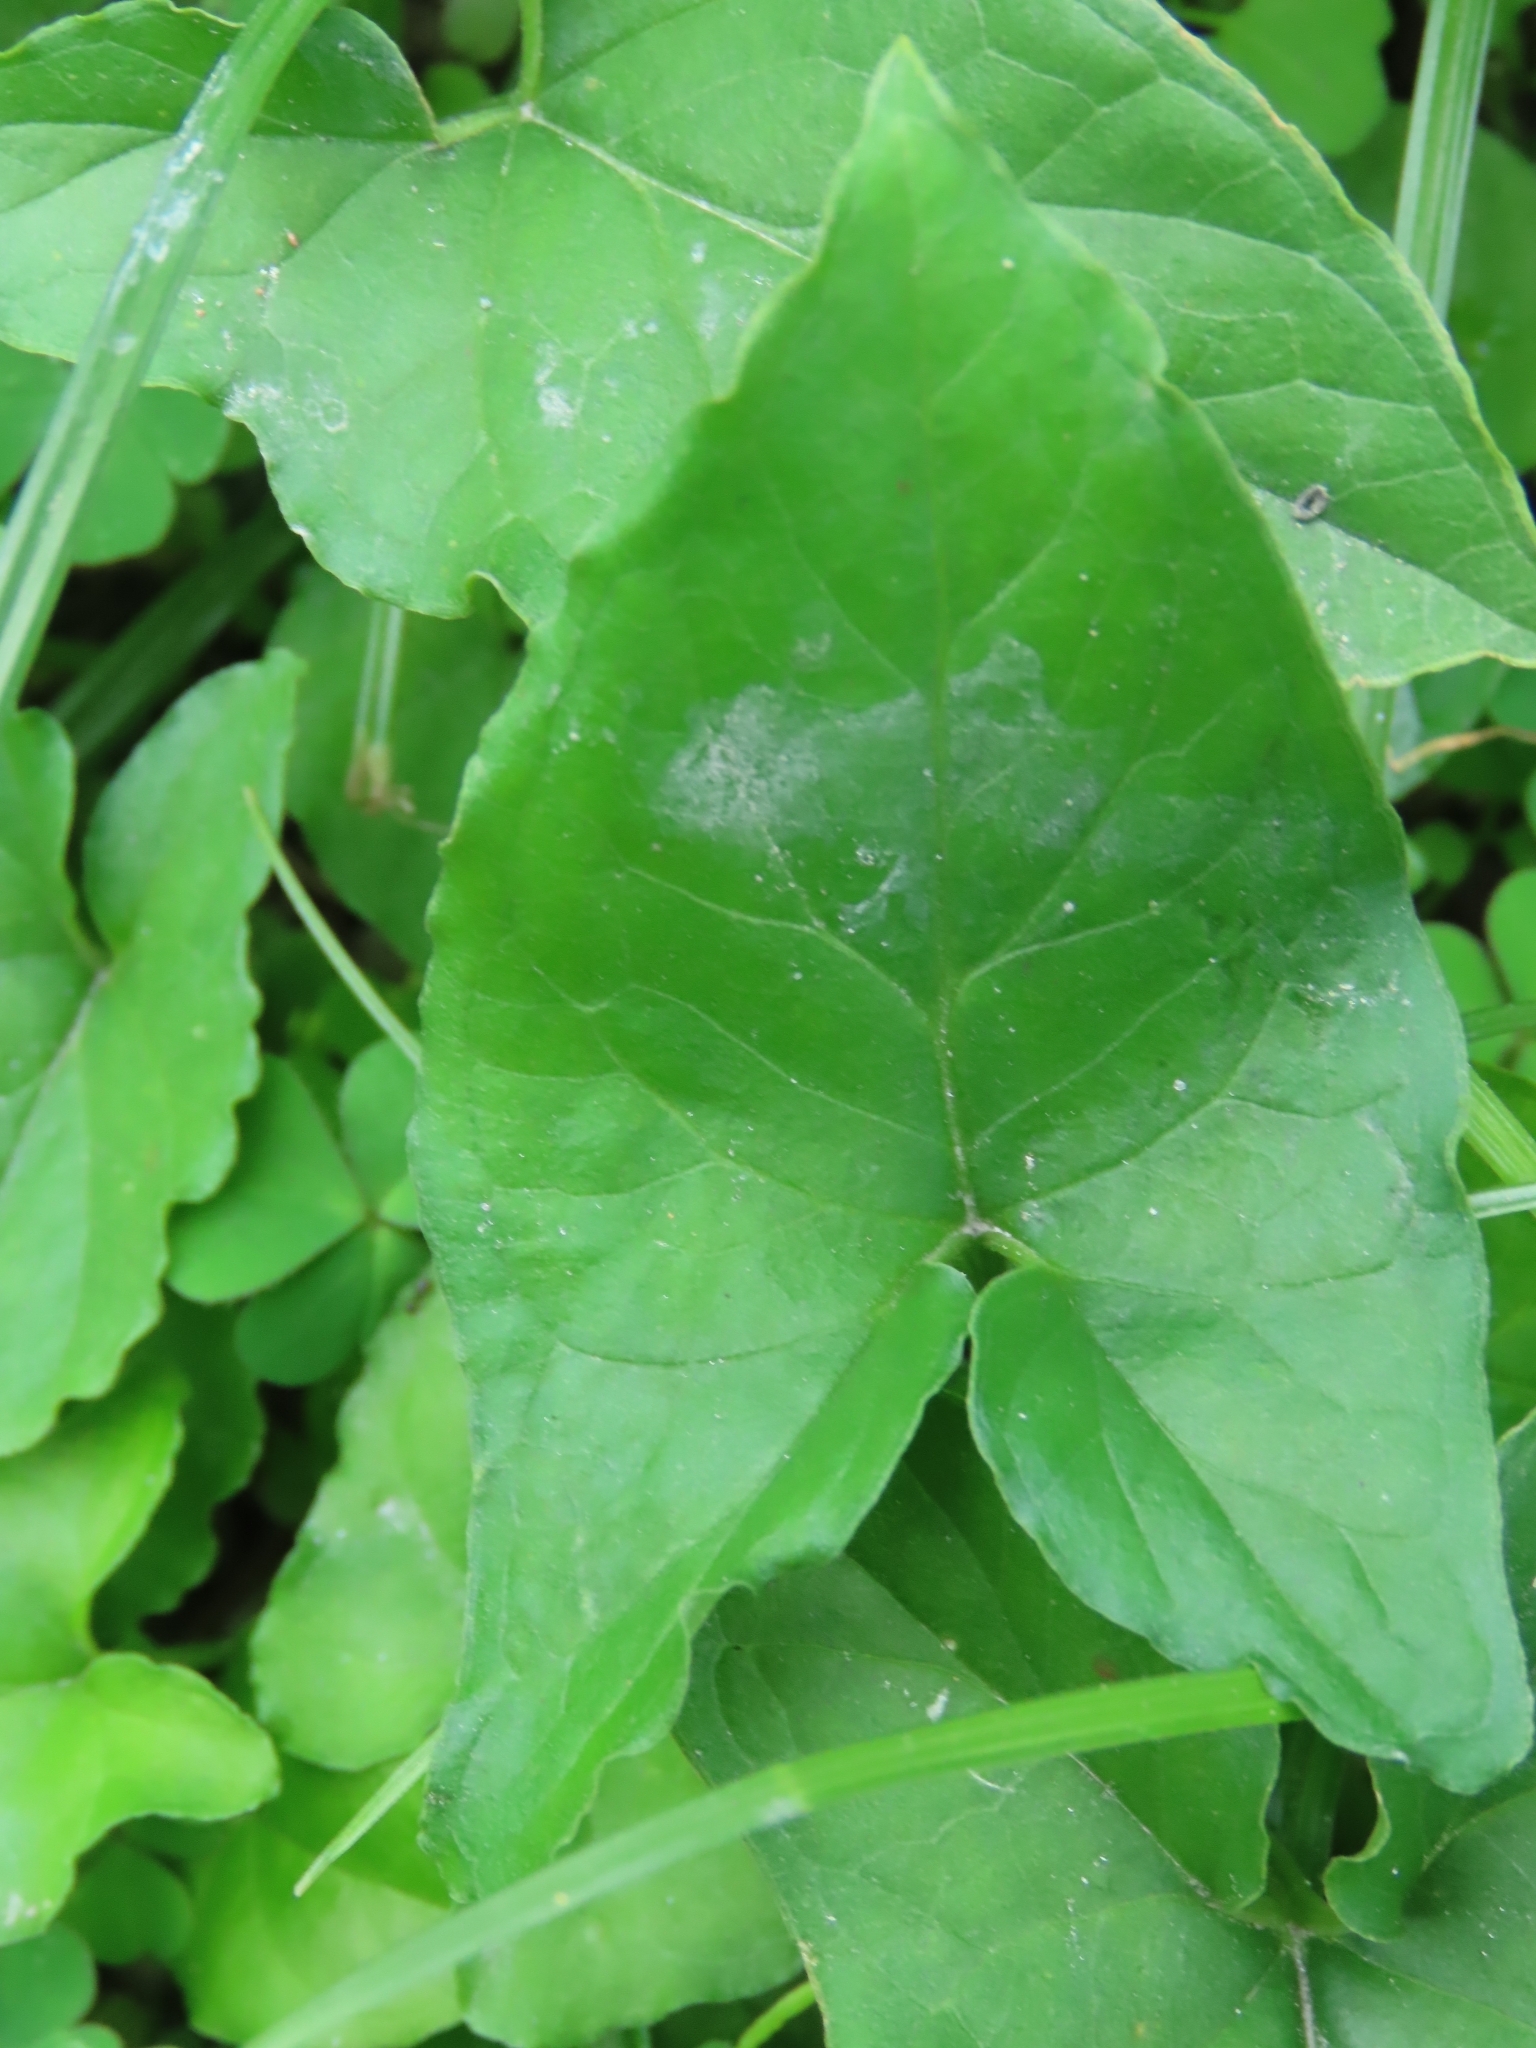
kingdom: Plantae
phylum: Tracheophyta
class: Liliopsida
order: Alismatales
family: Araceae
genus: Typhonium
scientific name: Typhonium blumei
